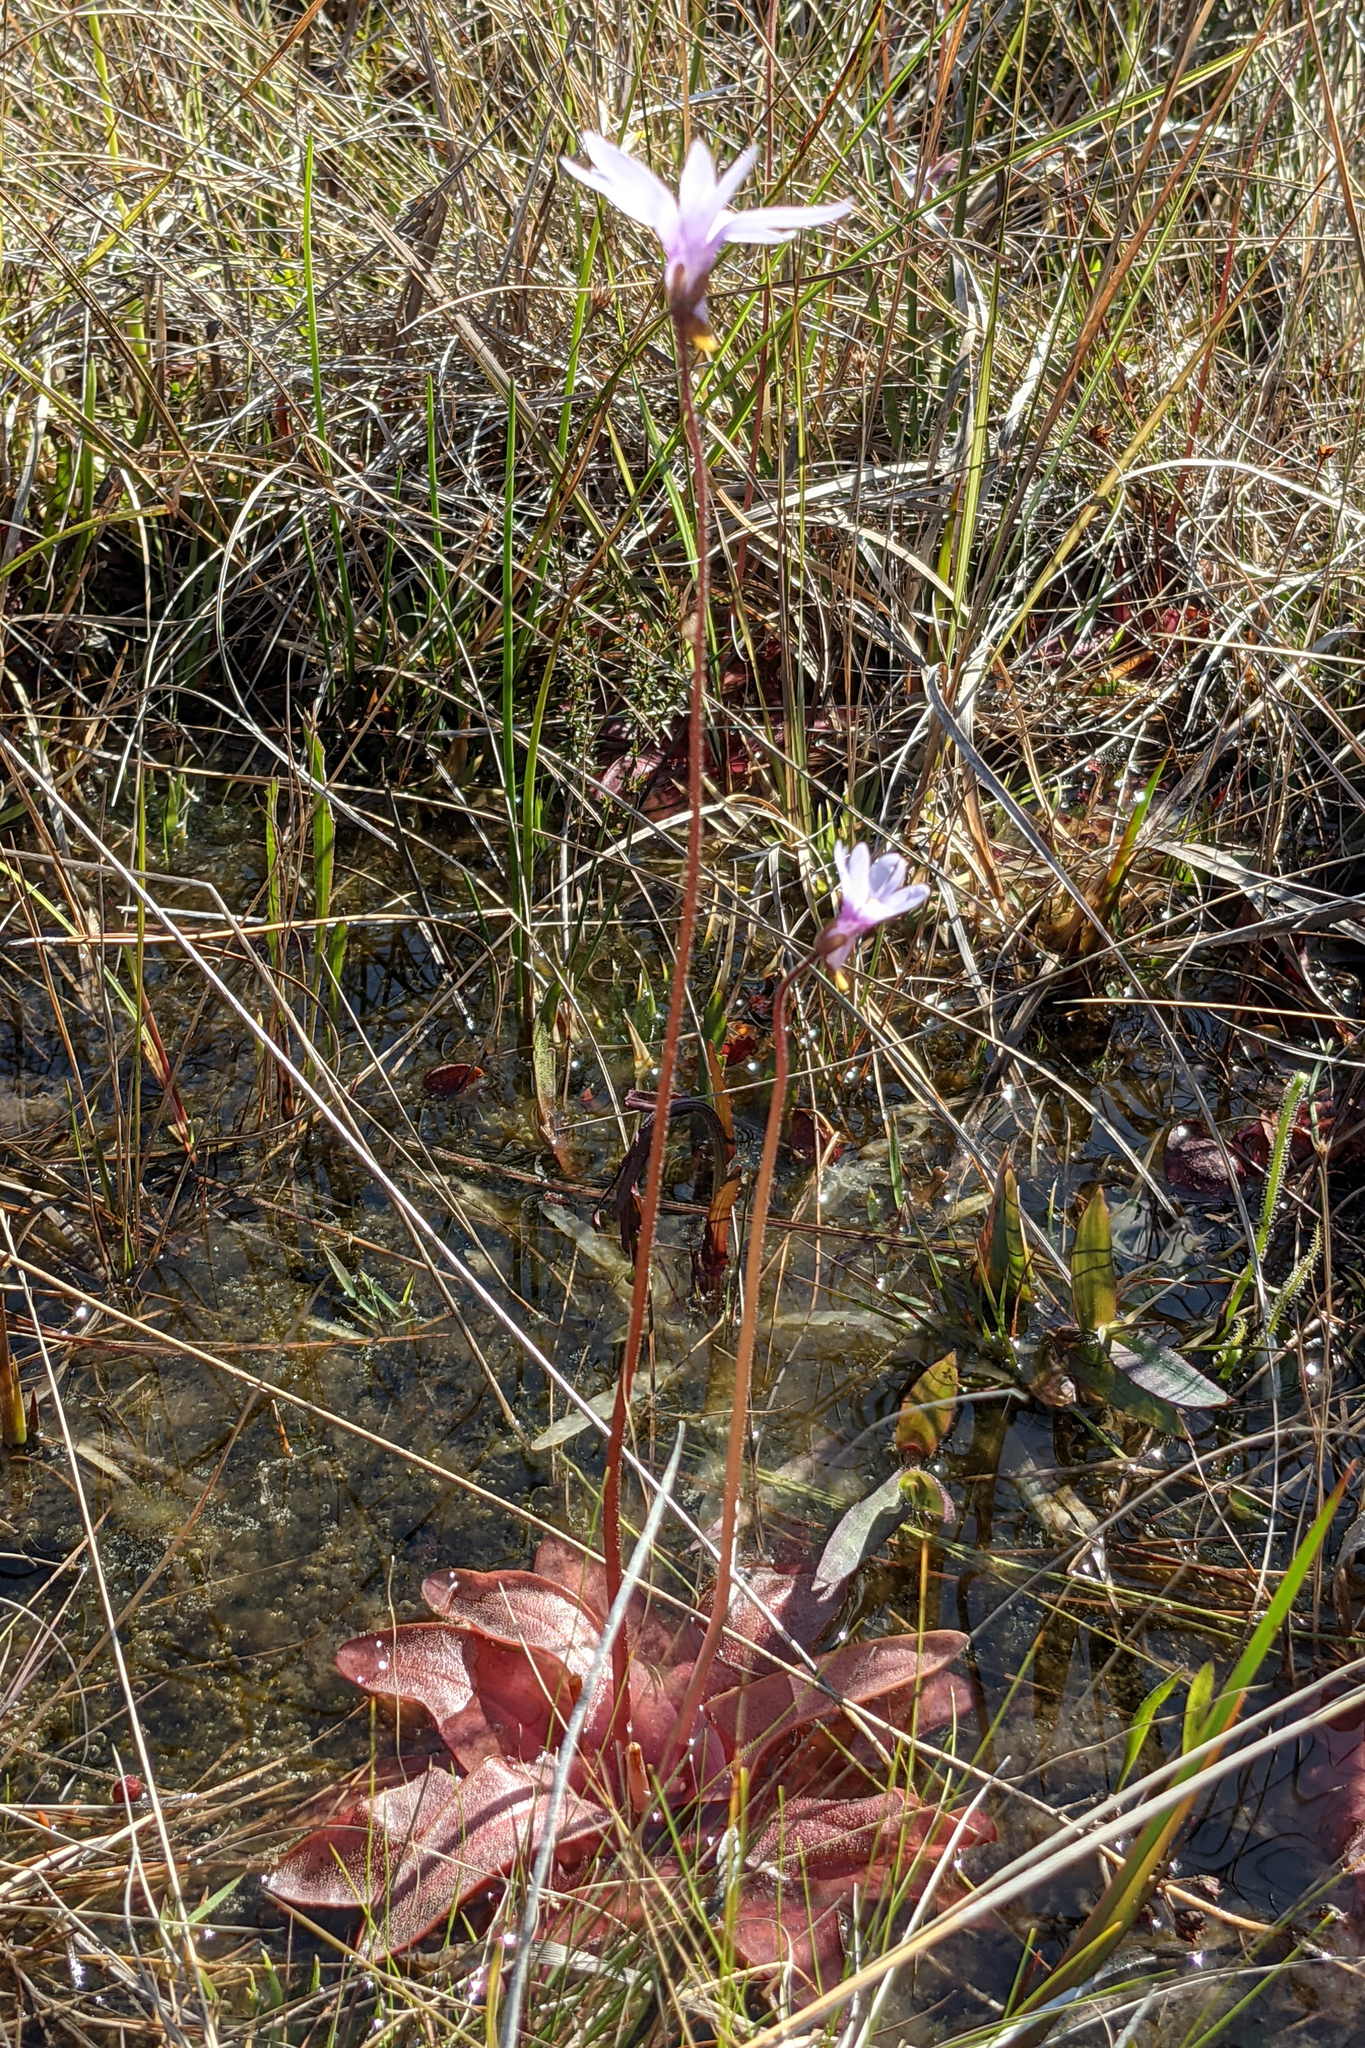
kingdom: Plantae
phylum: Tracheophyta
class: Magnoliopsida
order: Lamiales
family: Lentibulariaceae
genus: Pinguicula
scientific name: Pinguicula planifolia
